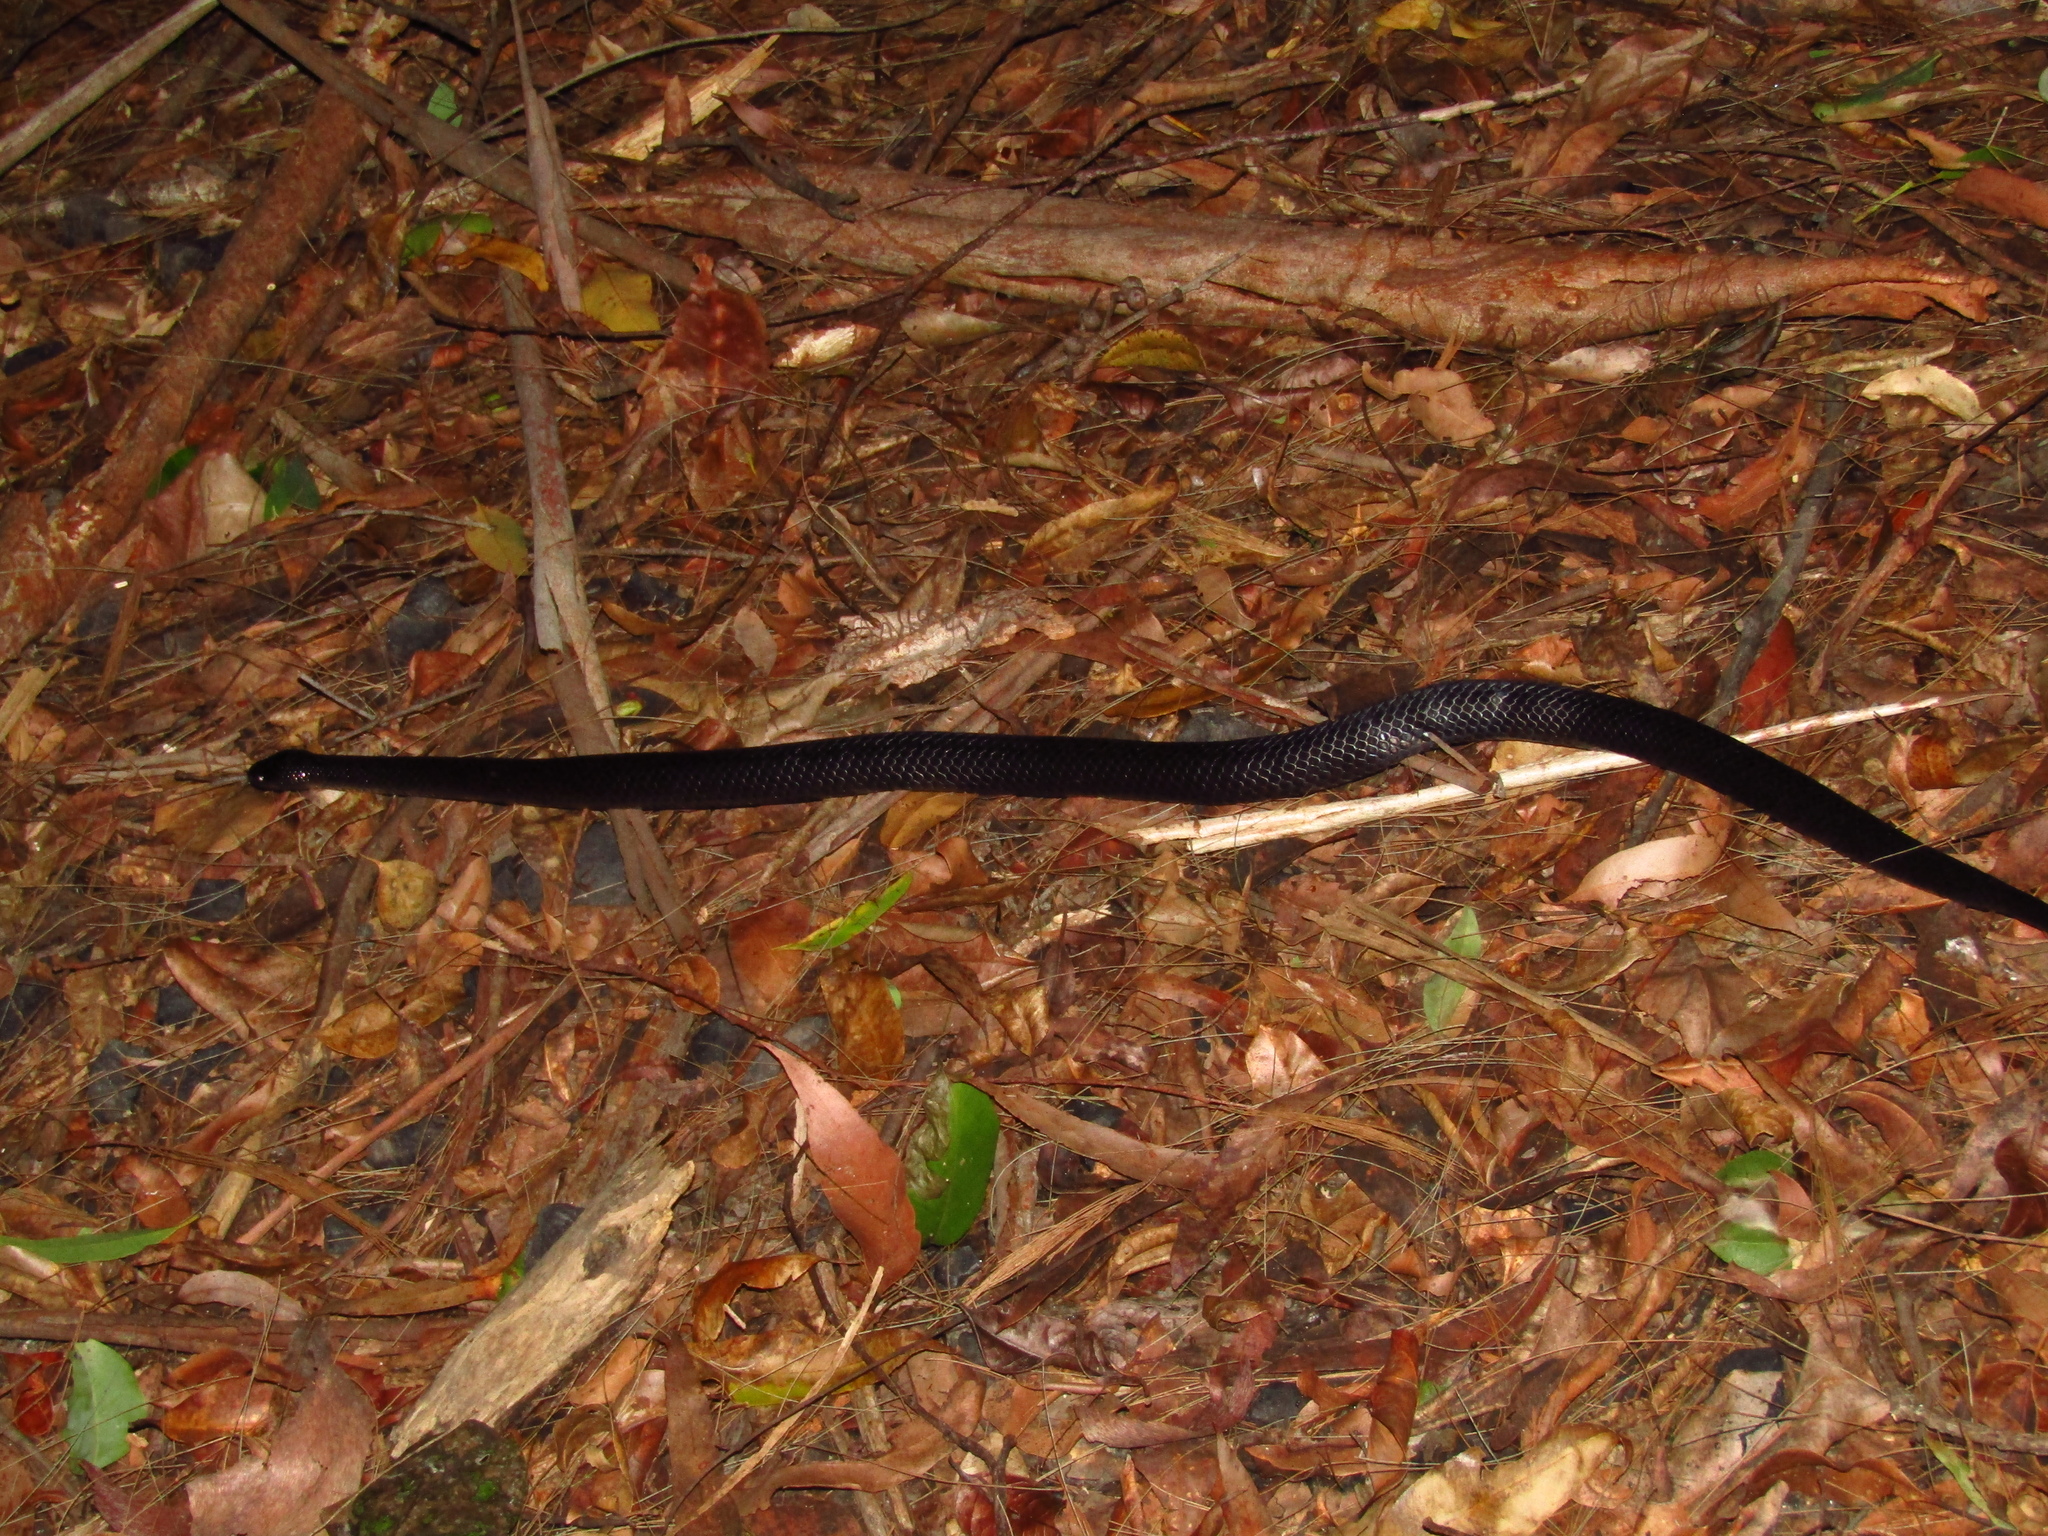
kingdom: Animalia
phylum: Chordata
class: Squamata
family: Elapidae
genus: Cryptophis
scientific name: Cryptophis nigrescens
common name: Eastern small-eyed snake
